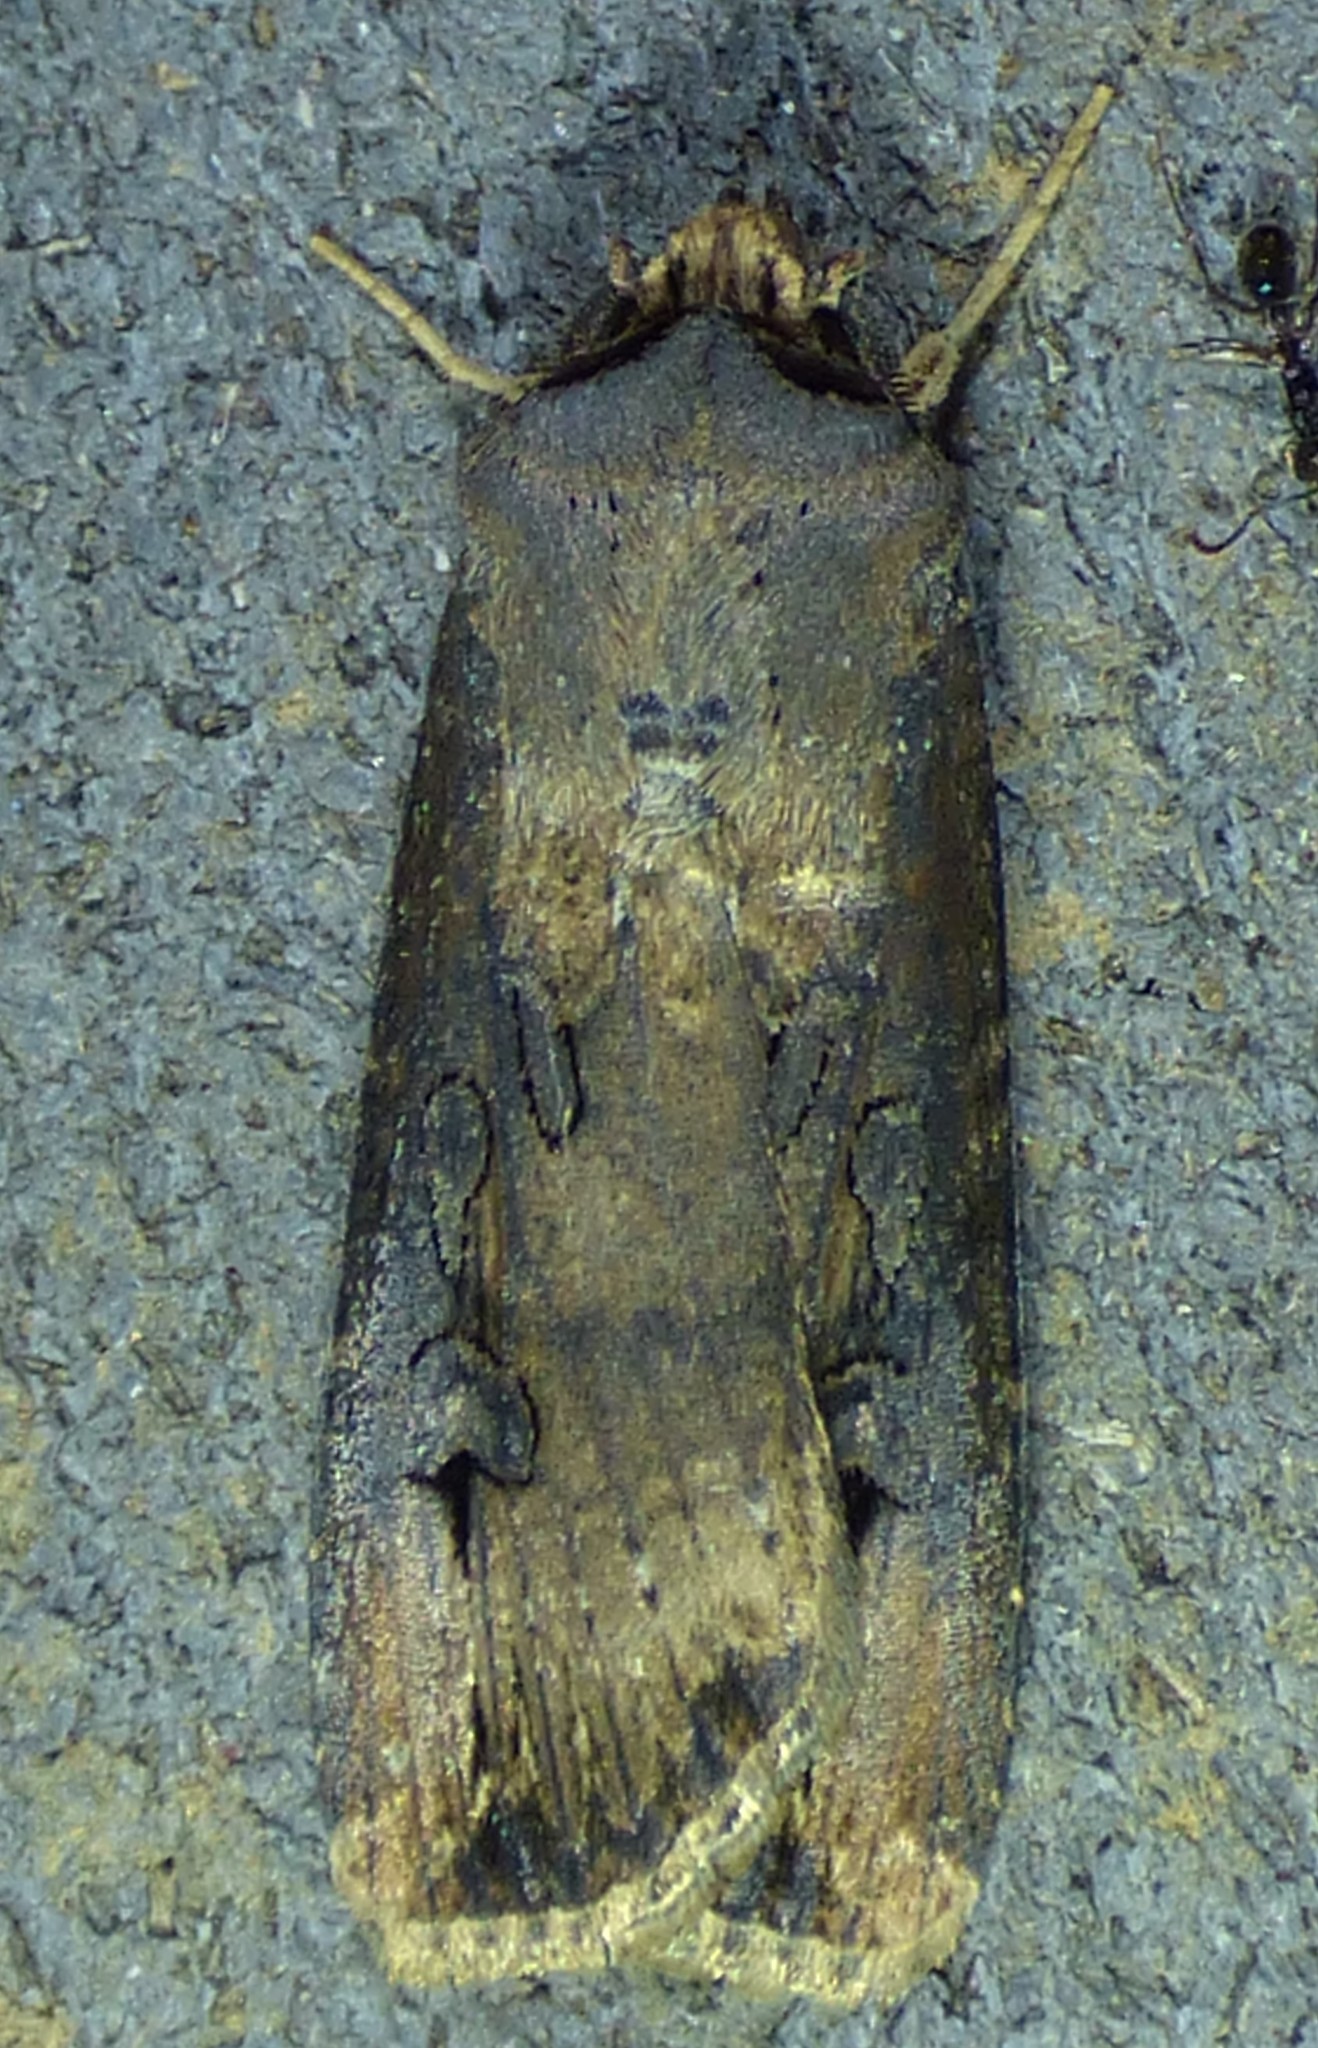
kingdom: Animalia
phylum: Arthropoda
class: Insecta
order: Lepidoptera
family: Noctuidae
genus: Agrotis
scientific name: Agrotis ipsilon
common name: Dark sword-grass
